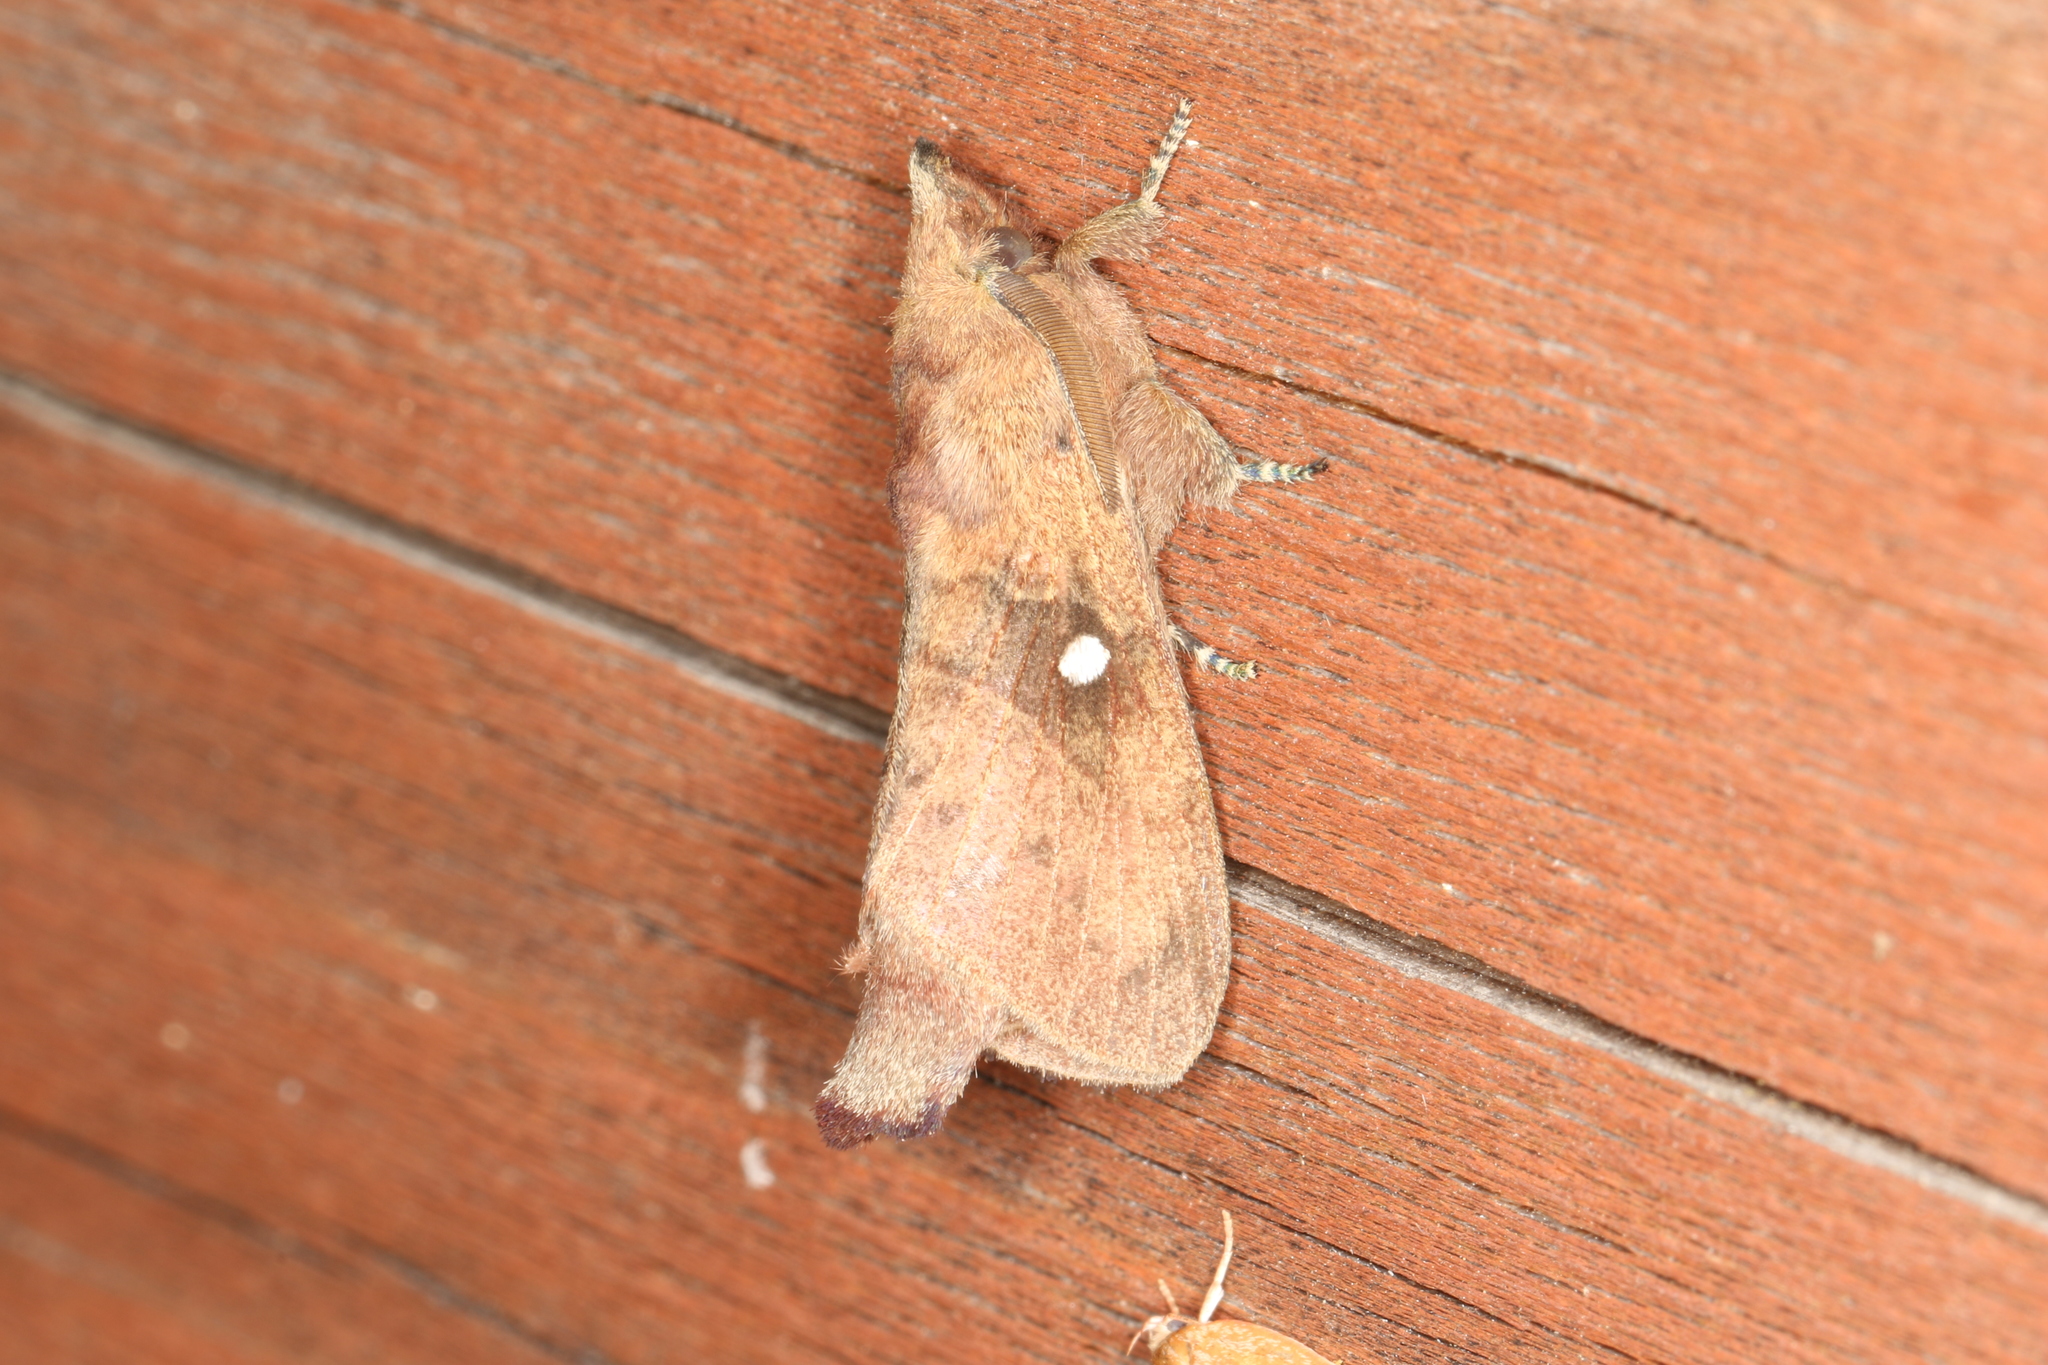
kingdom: Animalia
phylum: Arthropoda
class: Insecta
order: Lepidoptera
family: Lasiocampidae
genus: Opsirhina
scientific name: Opsirhina lechriodes
